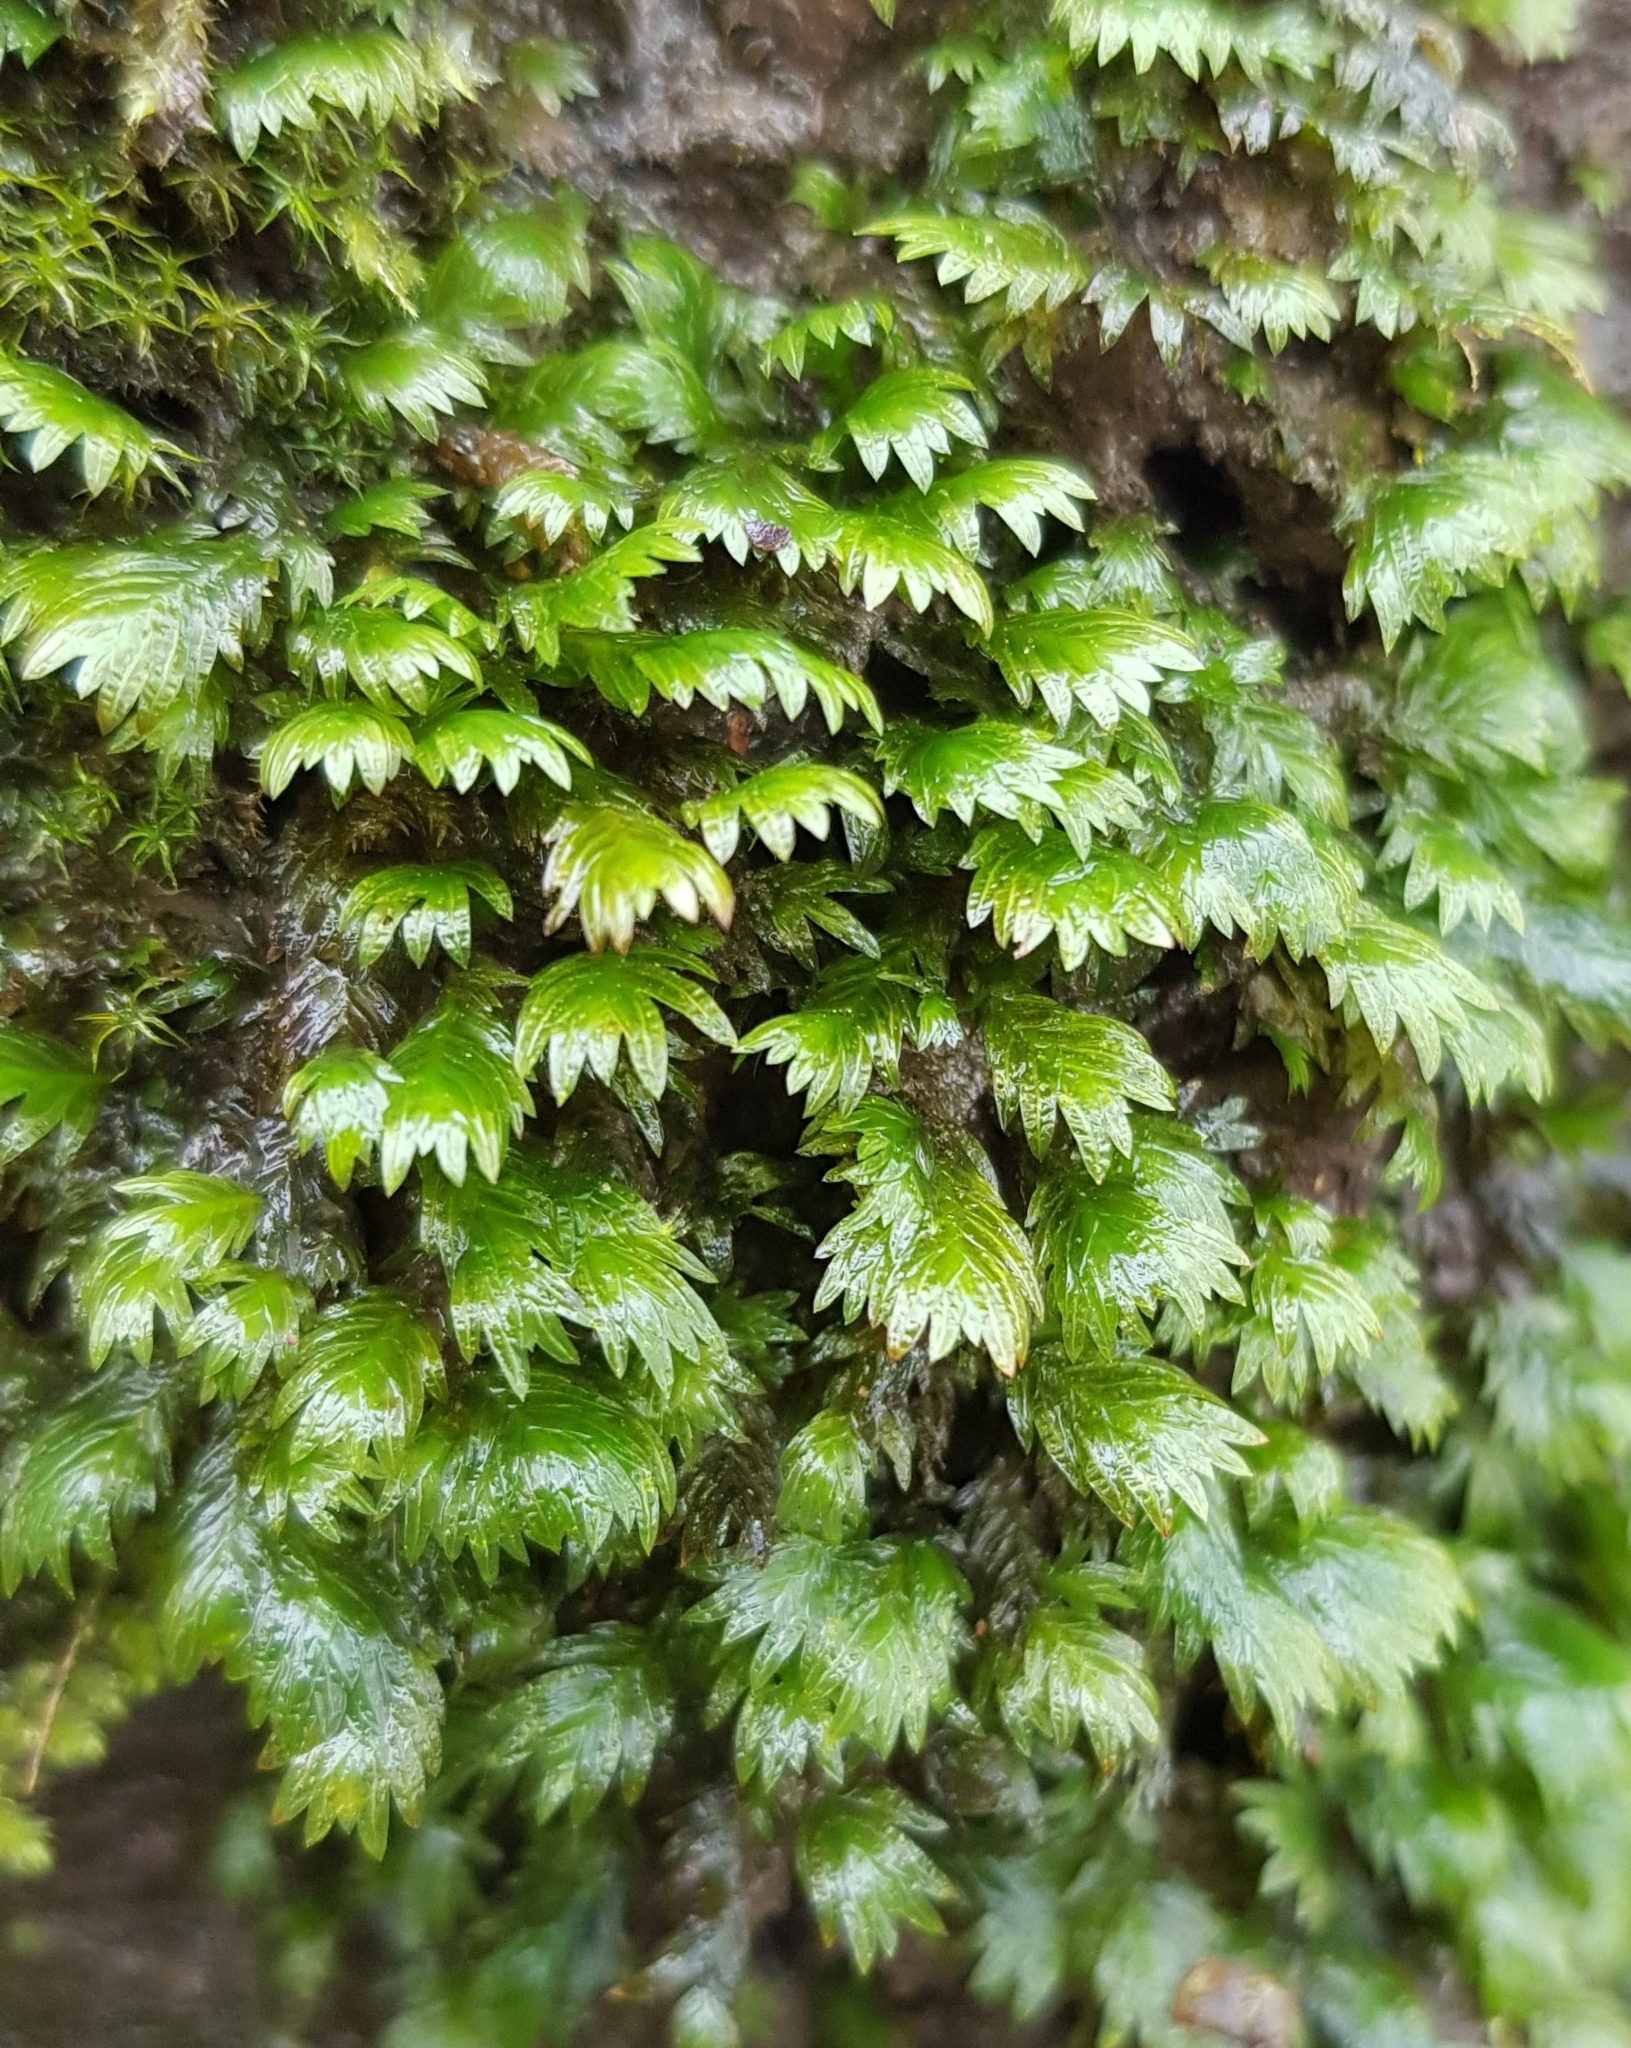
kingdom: Plantae
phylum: Bryophyta
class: Bryopsida
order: Dicranales
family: Fissidentaceae
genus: Fissidens
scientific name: Fissidens dubius
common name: Rock pocket moss
